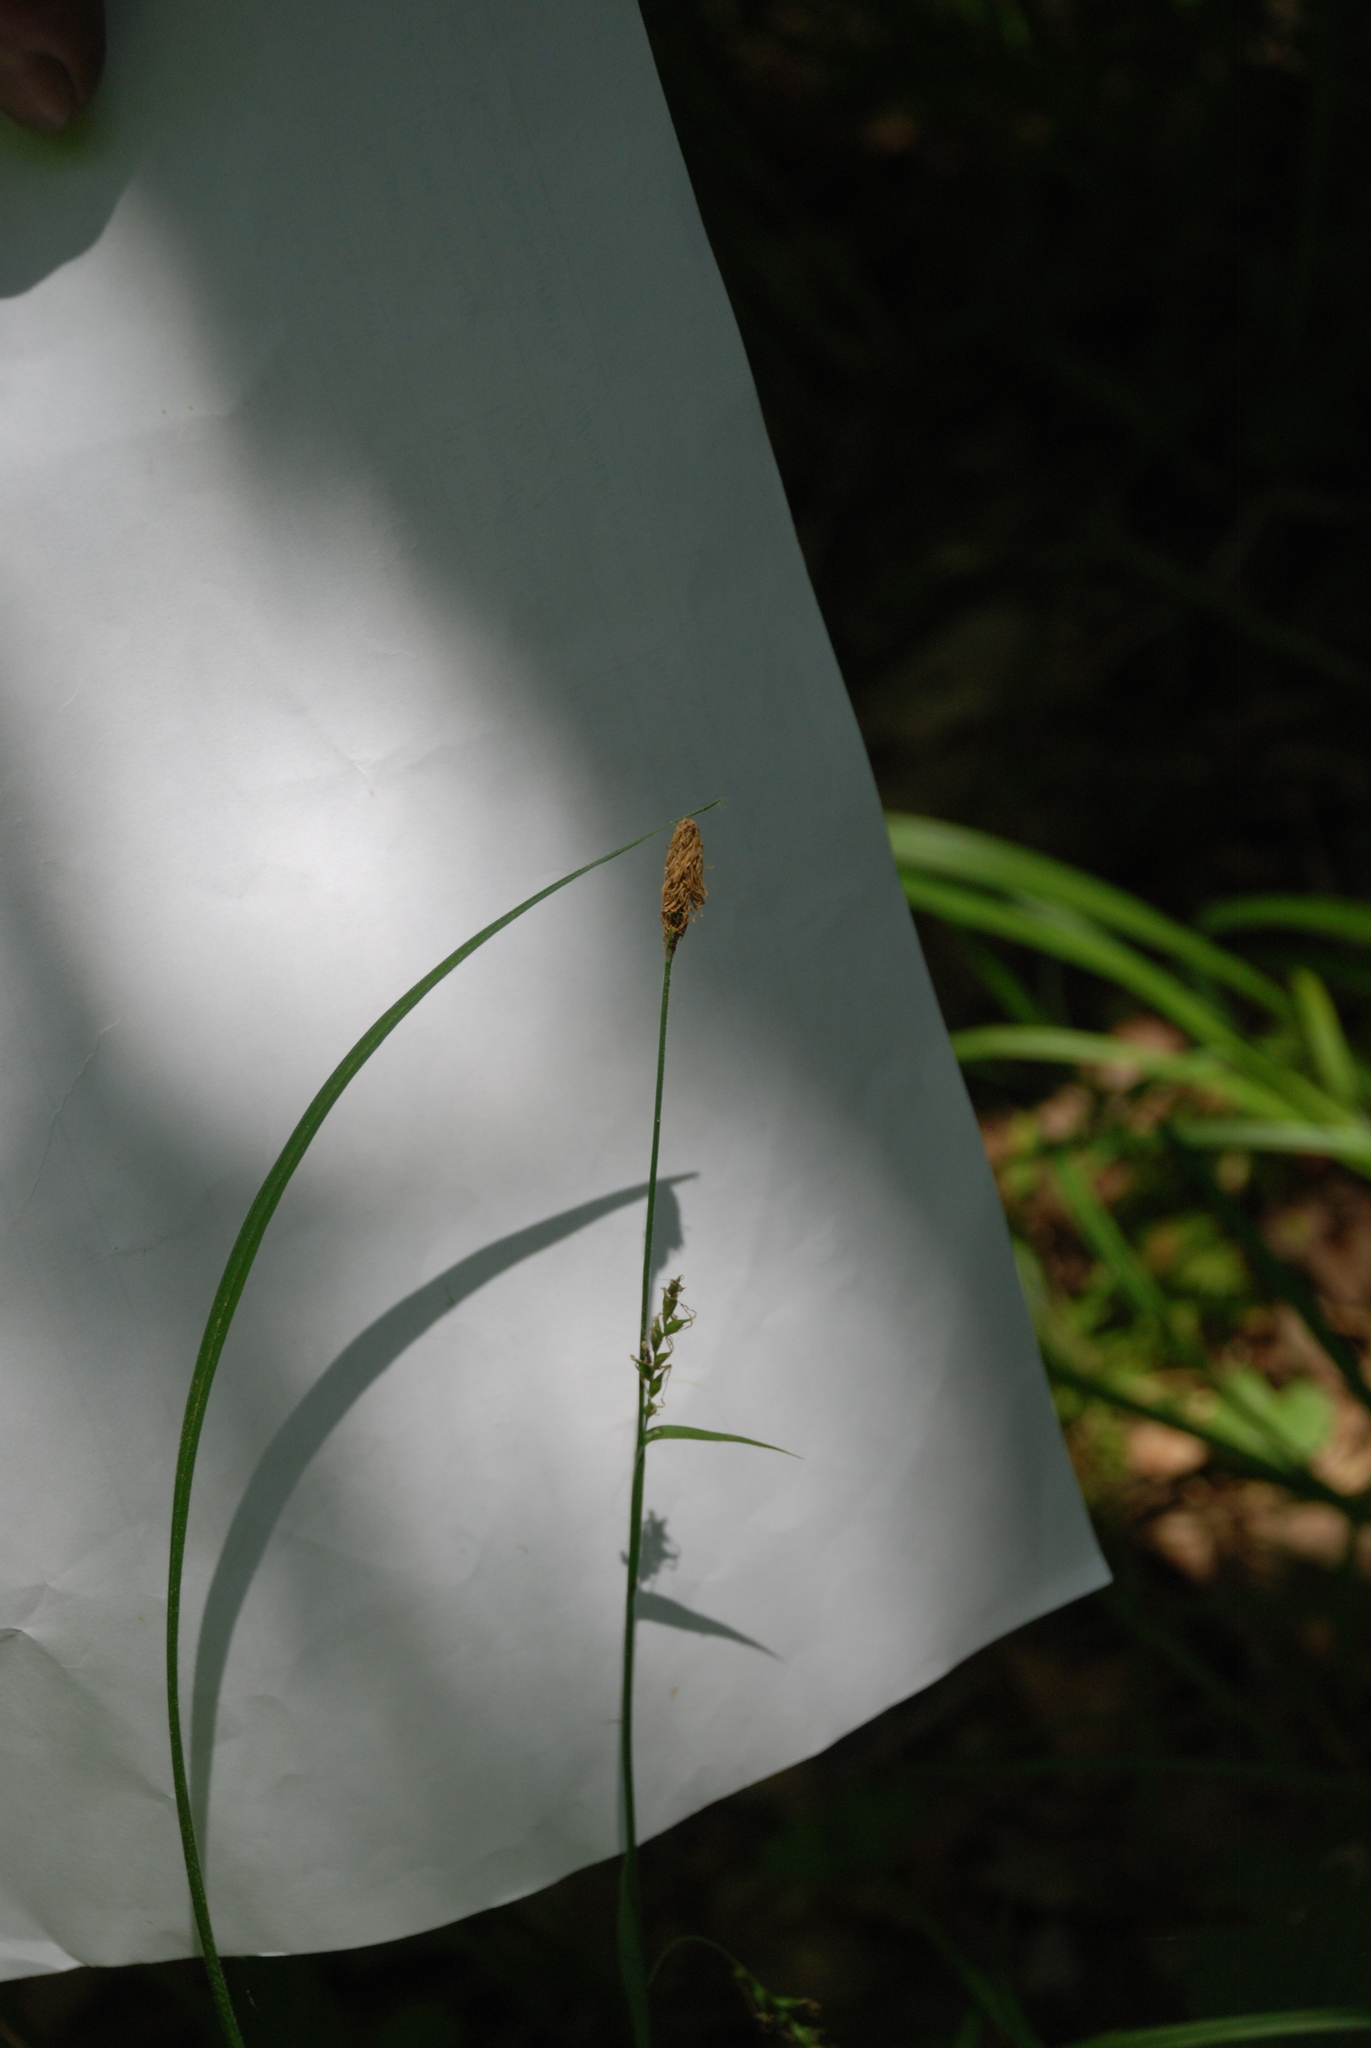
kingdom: Plantae
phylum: Tracheophyta
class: Liliopsida
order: Poales
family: Cyperaceae
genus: Carex
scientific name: Carex pilosa
